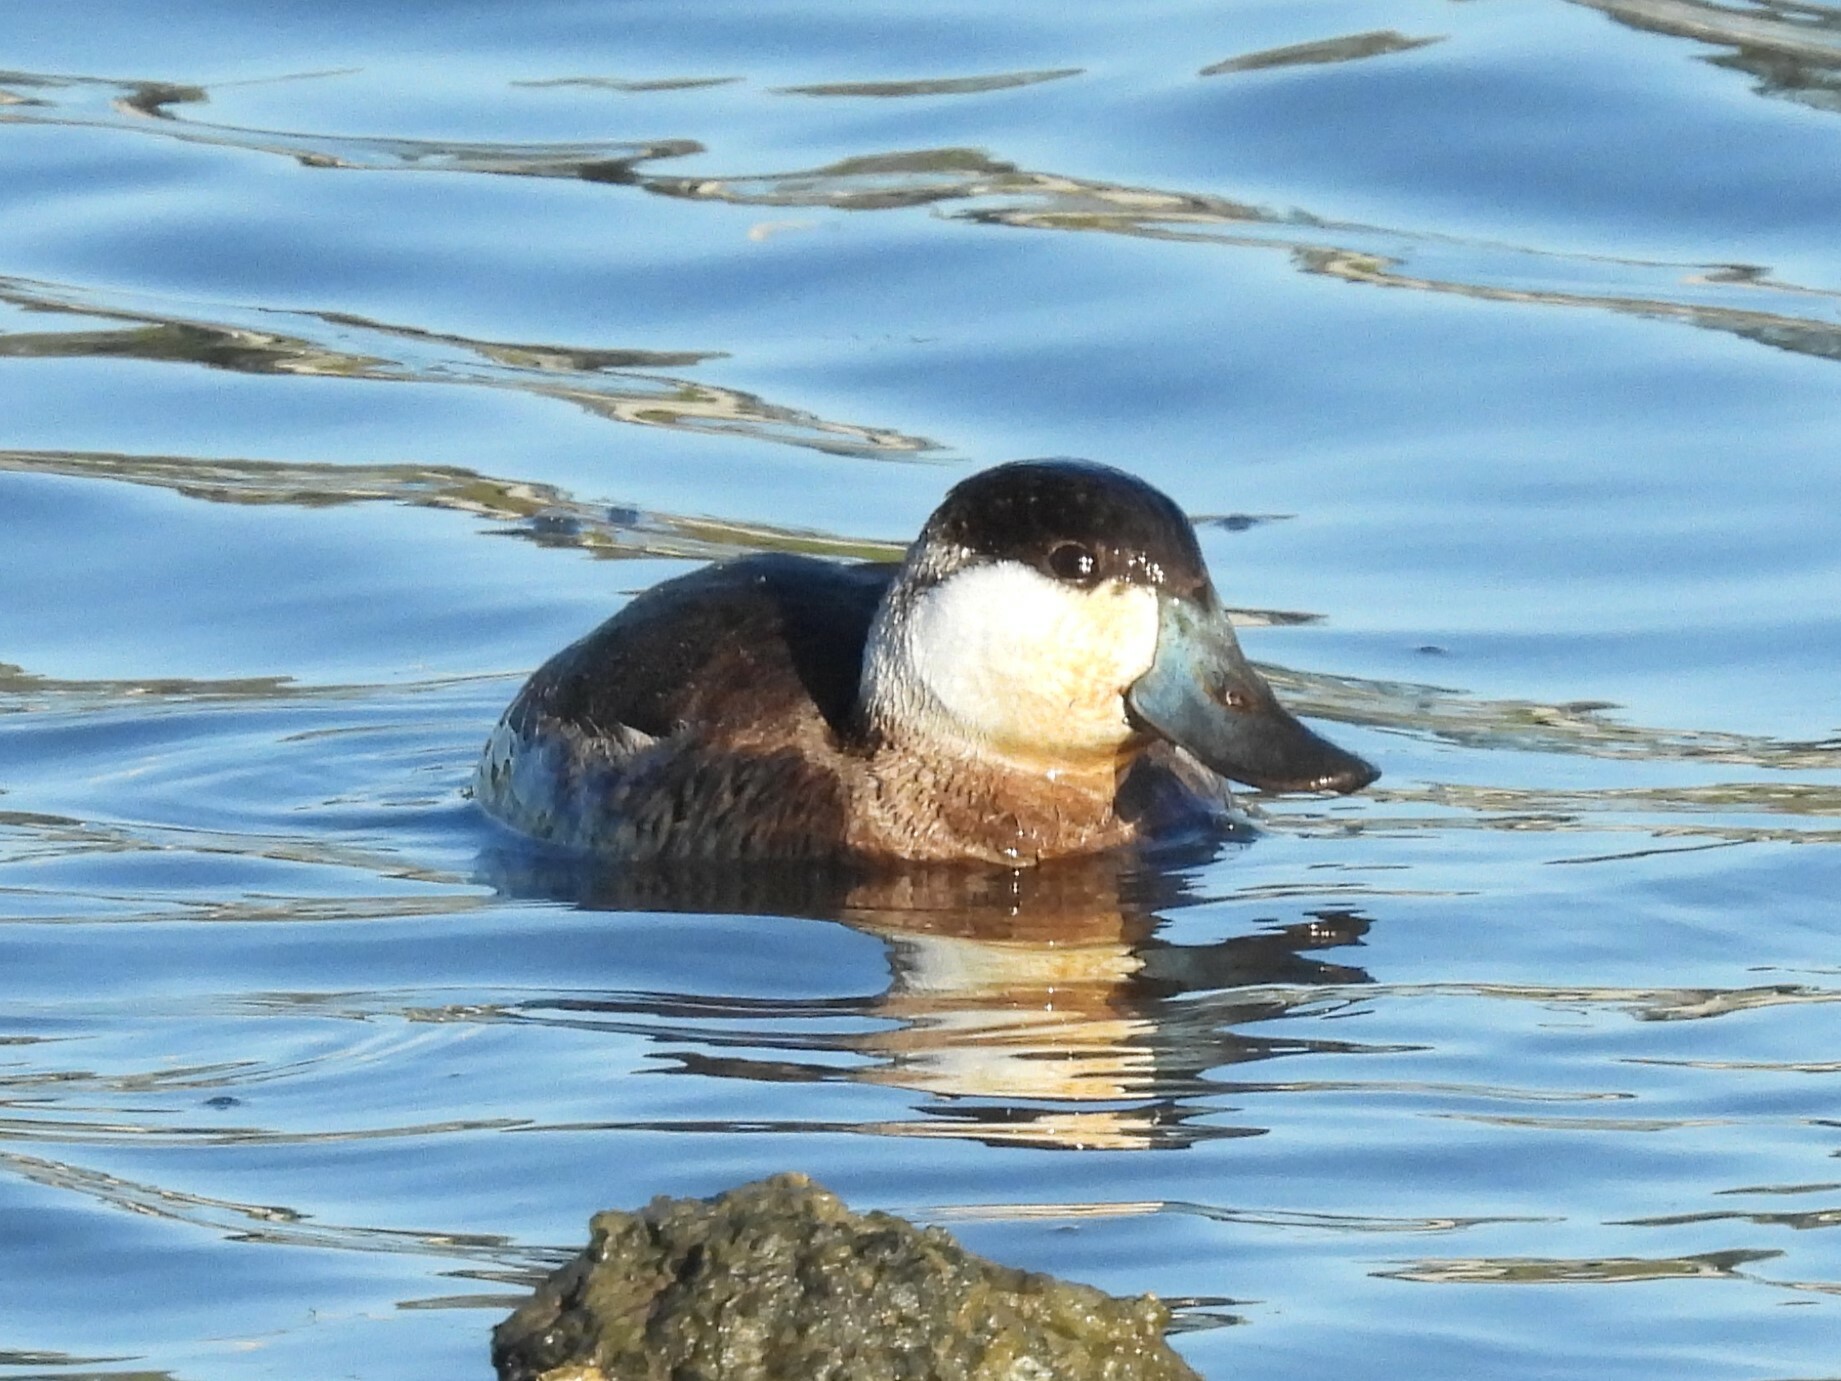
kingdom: Animalia
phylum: Chordata
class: Aves
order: Anseriformes
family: Anatidae
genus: Oxyura
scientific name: Oxyura jamaicensis
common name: Ruddy duck
